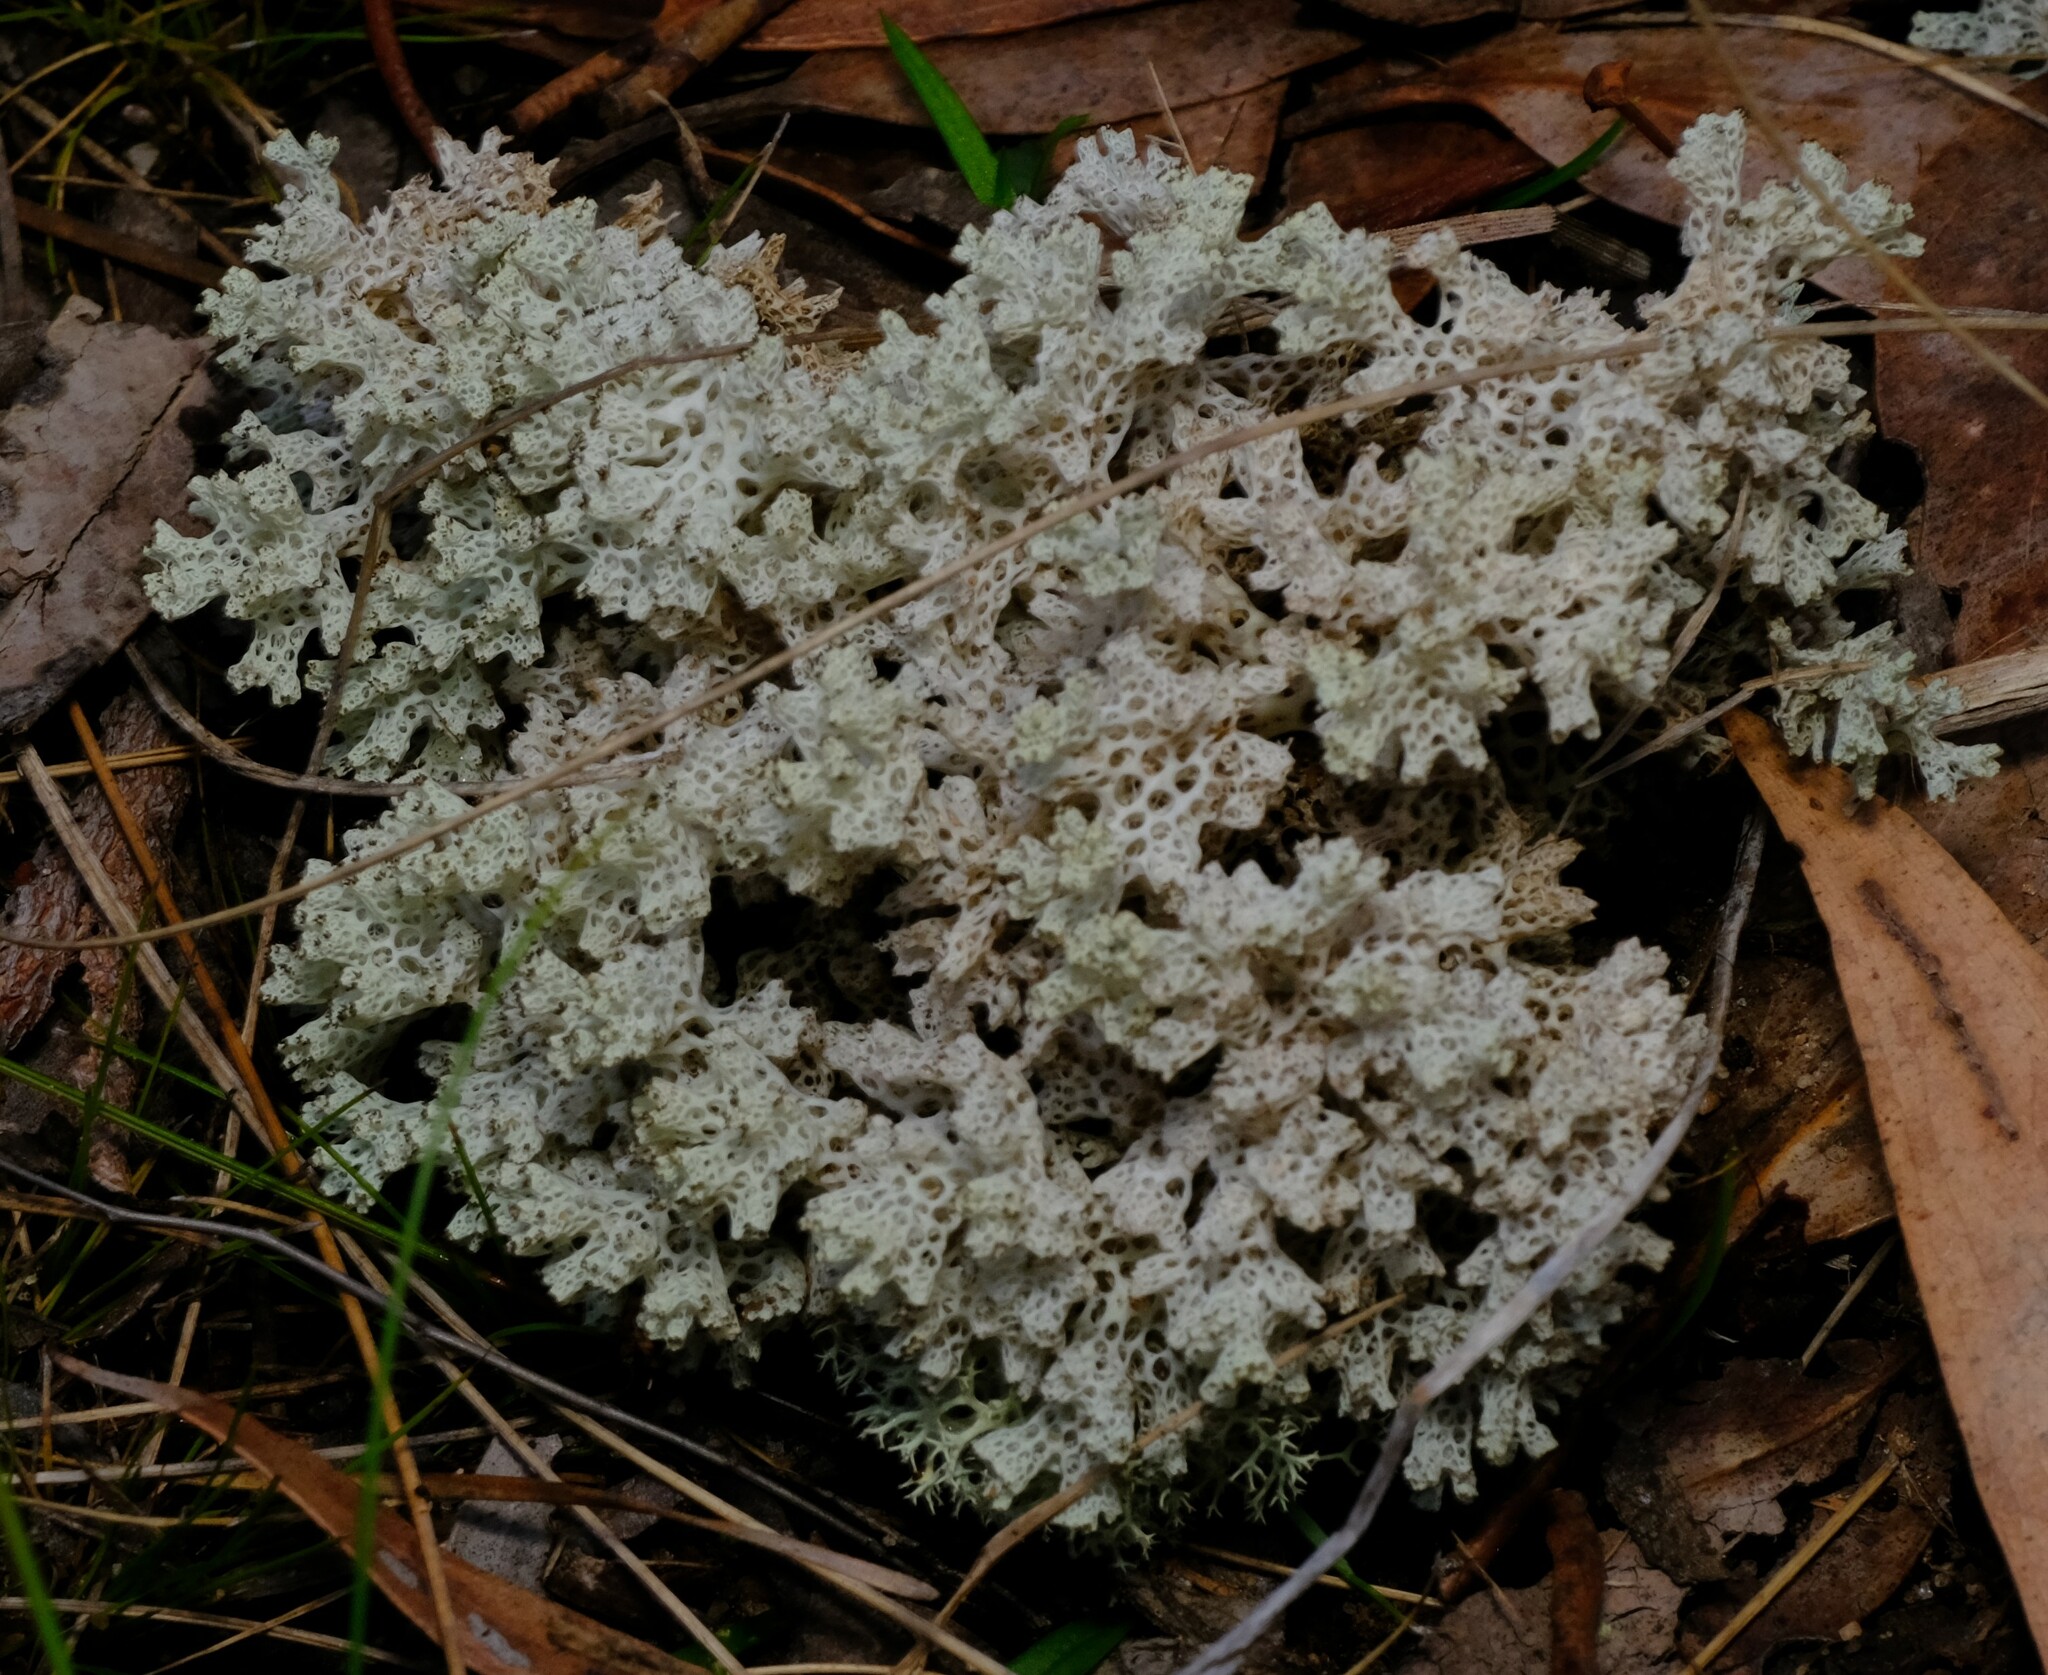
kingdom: Fungi
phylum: Ascomycota
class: Lecanoromycetes
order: Lecanorales
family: Cladoniaceae
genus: Pulchrocladia
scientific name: Pulchrocladia retipora
